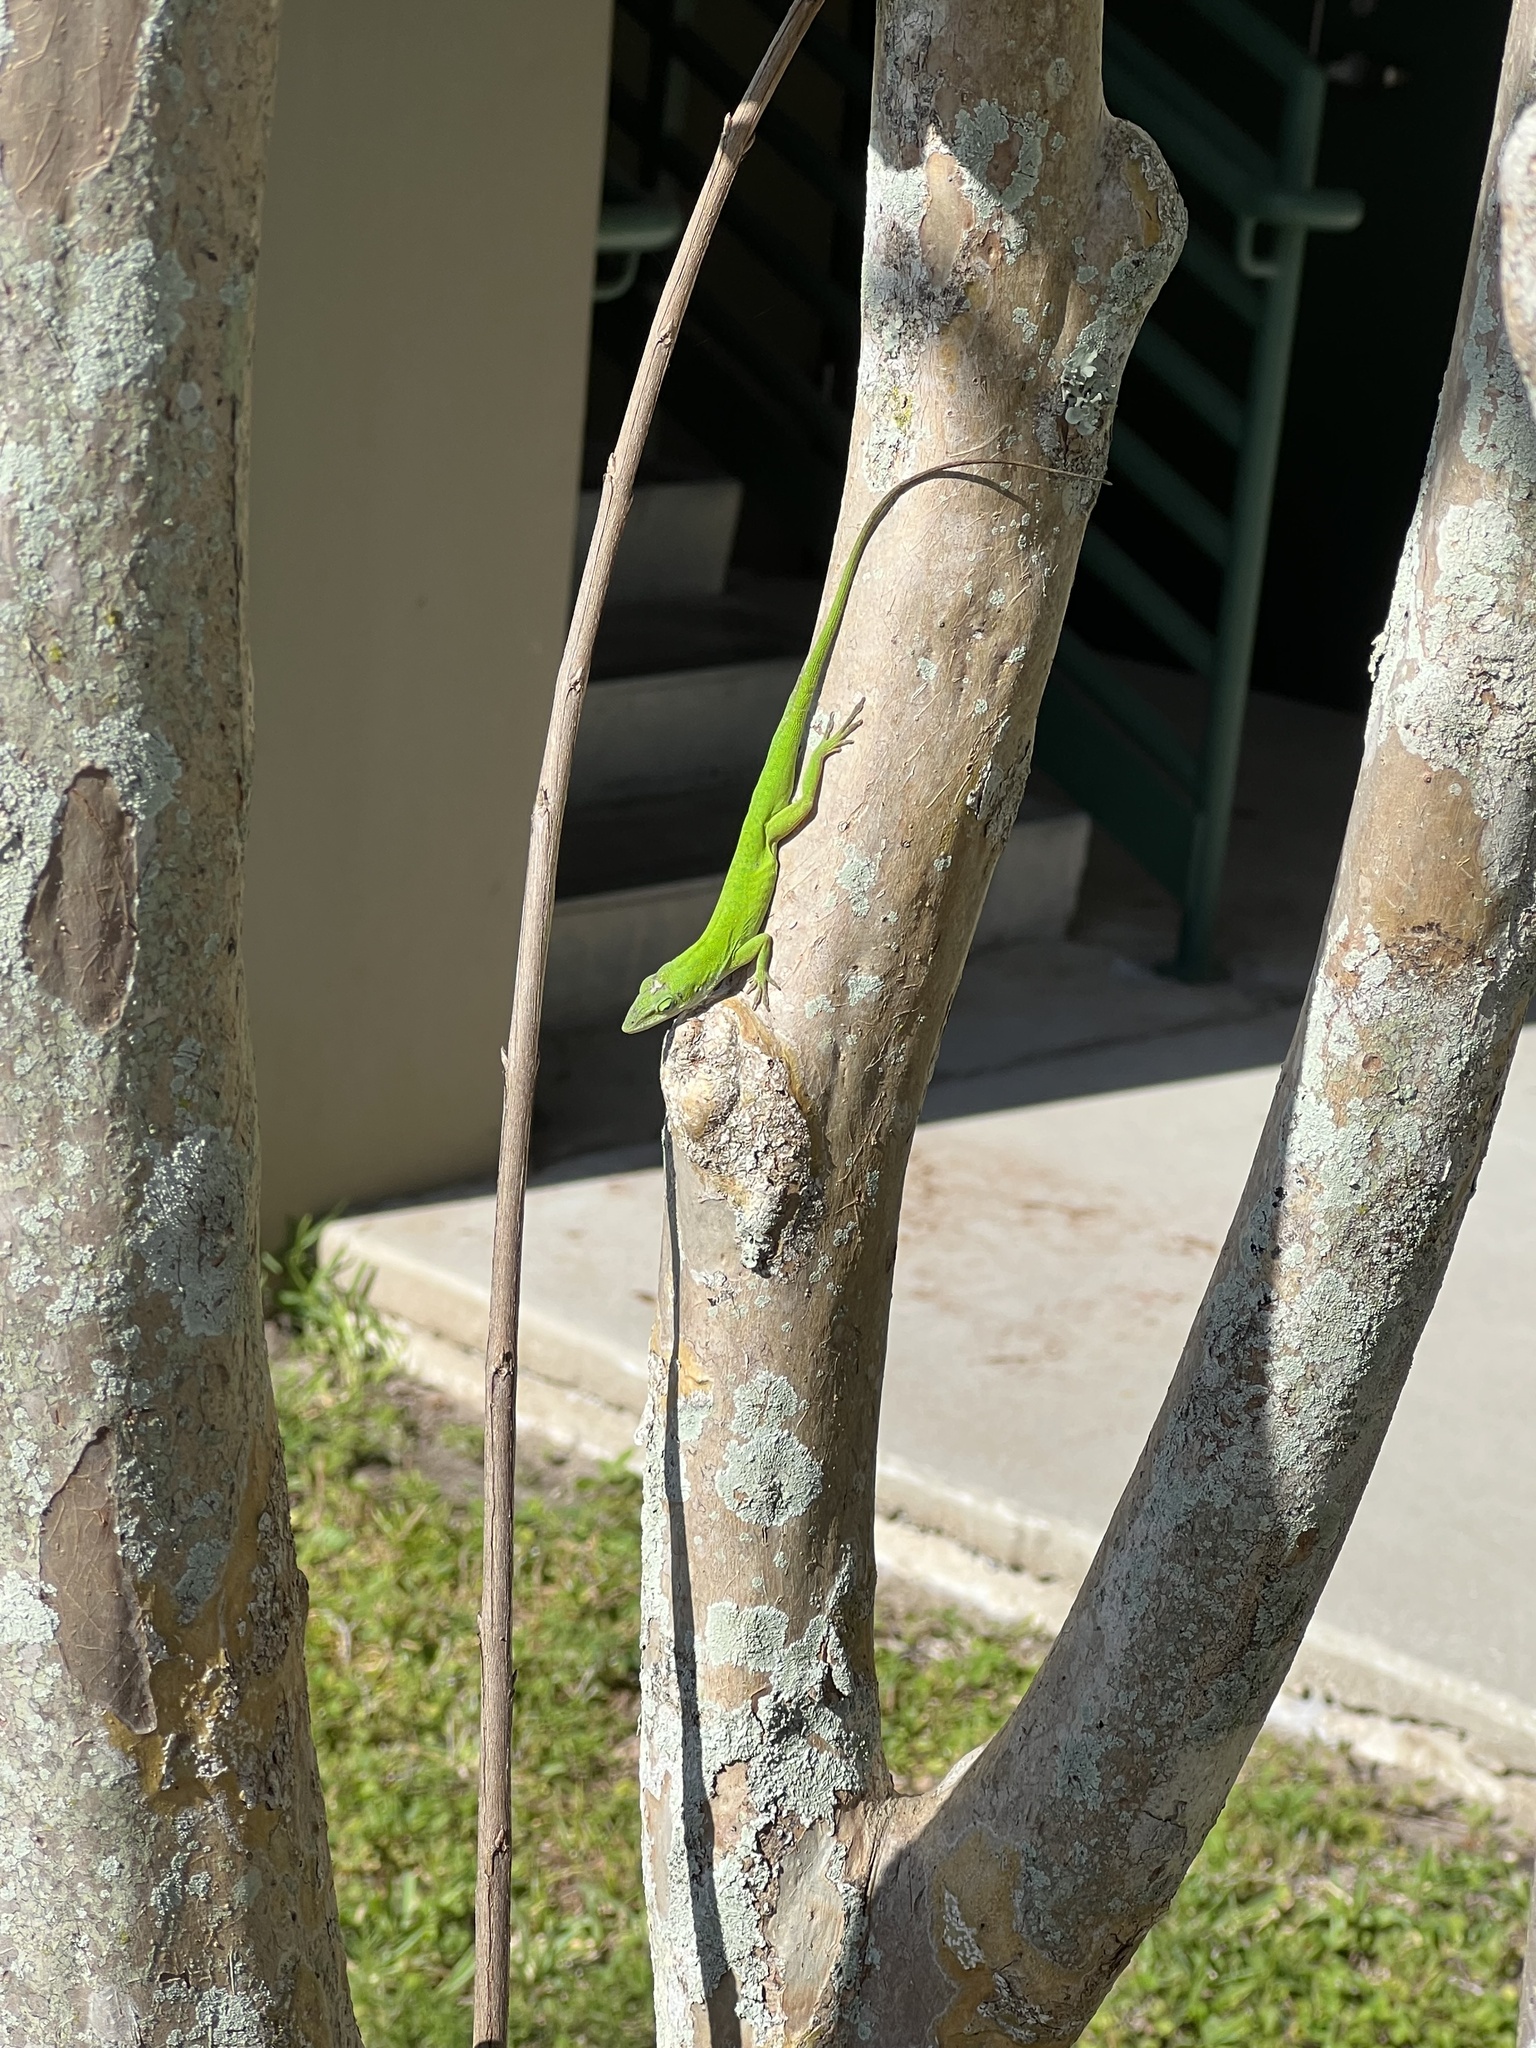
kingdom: Animalia
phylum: Chordata
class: Squamata
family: Dactyloidae
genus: Anolis
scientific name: Anolis carolinensis
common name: Green anole
